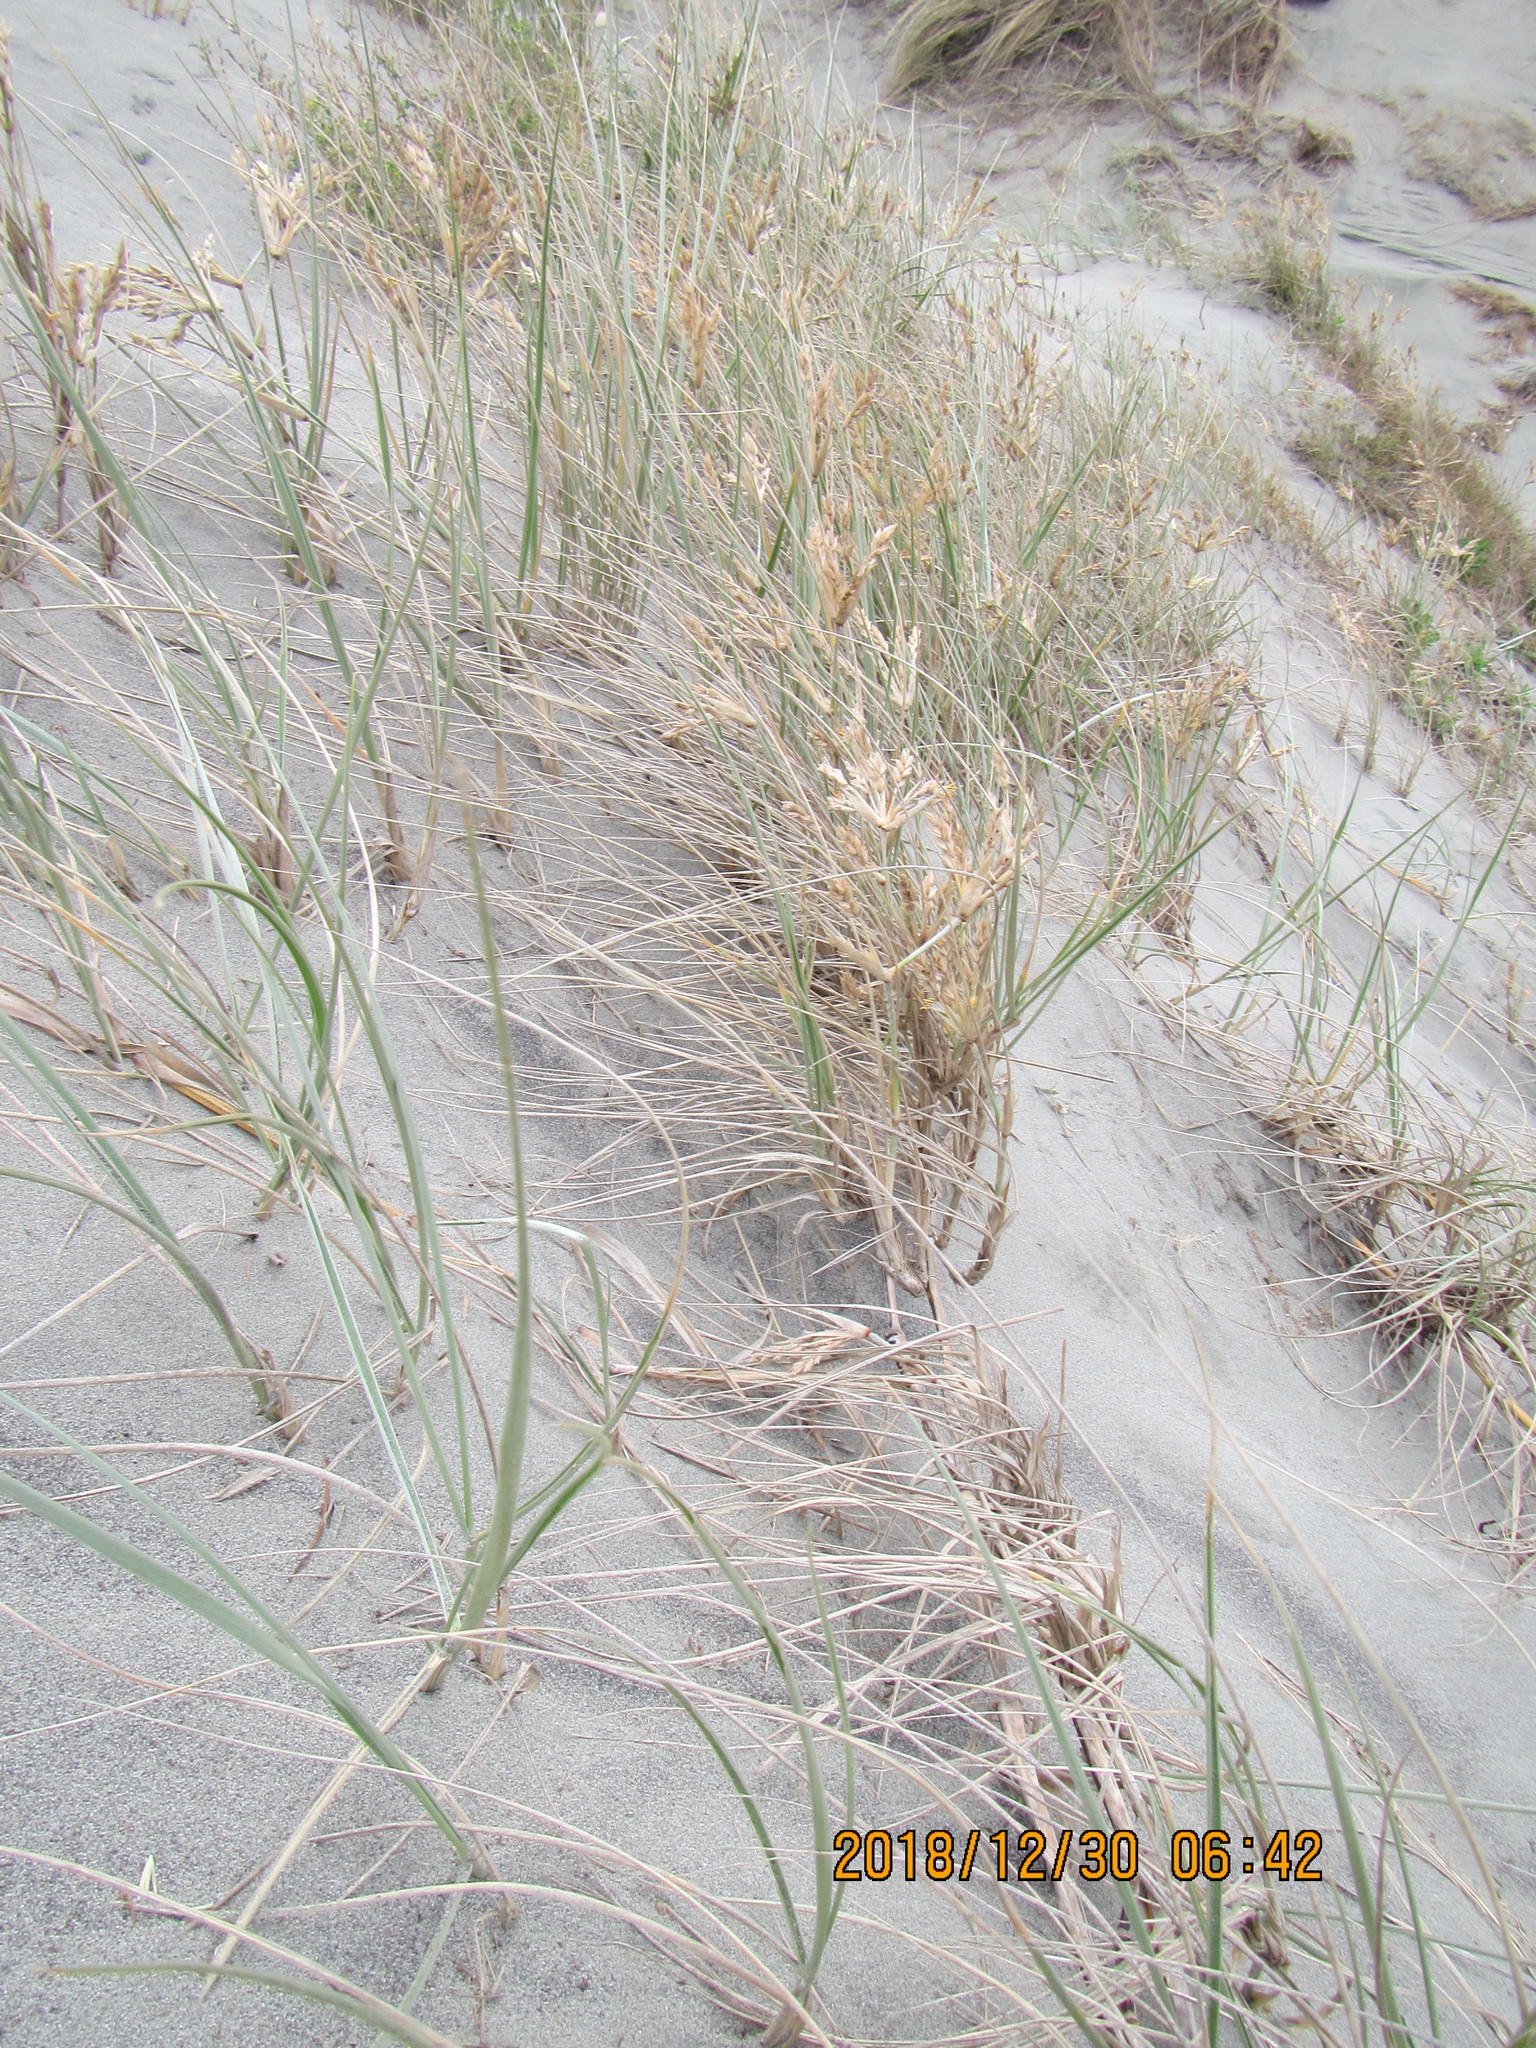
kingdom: Plantae
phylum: Tracheophyta
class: Liliopsida
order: Poales
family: Poaceae
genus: Spinifex
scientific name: Spinifex sericeus
